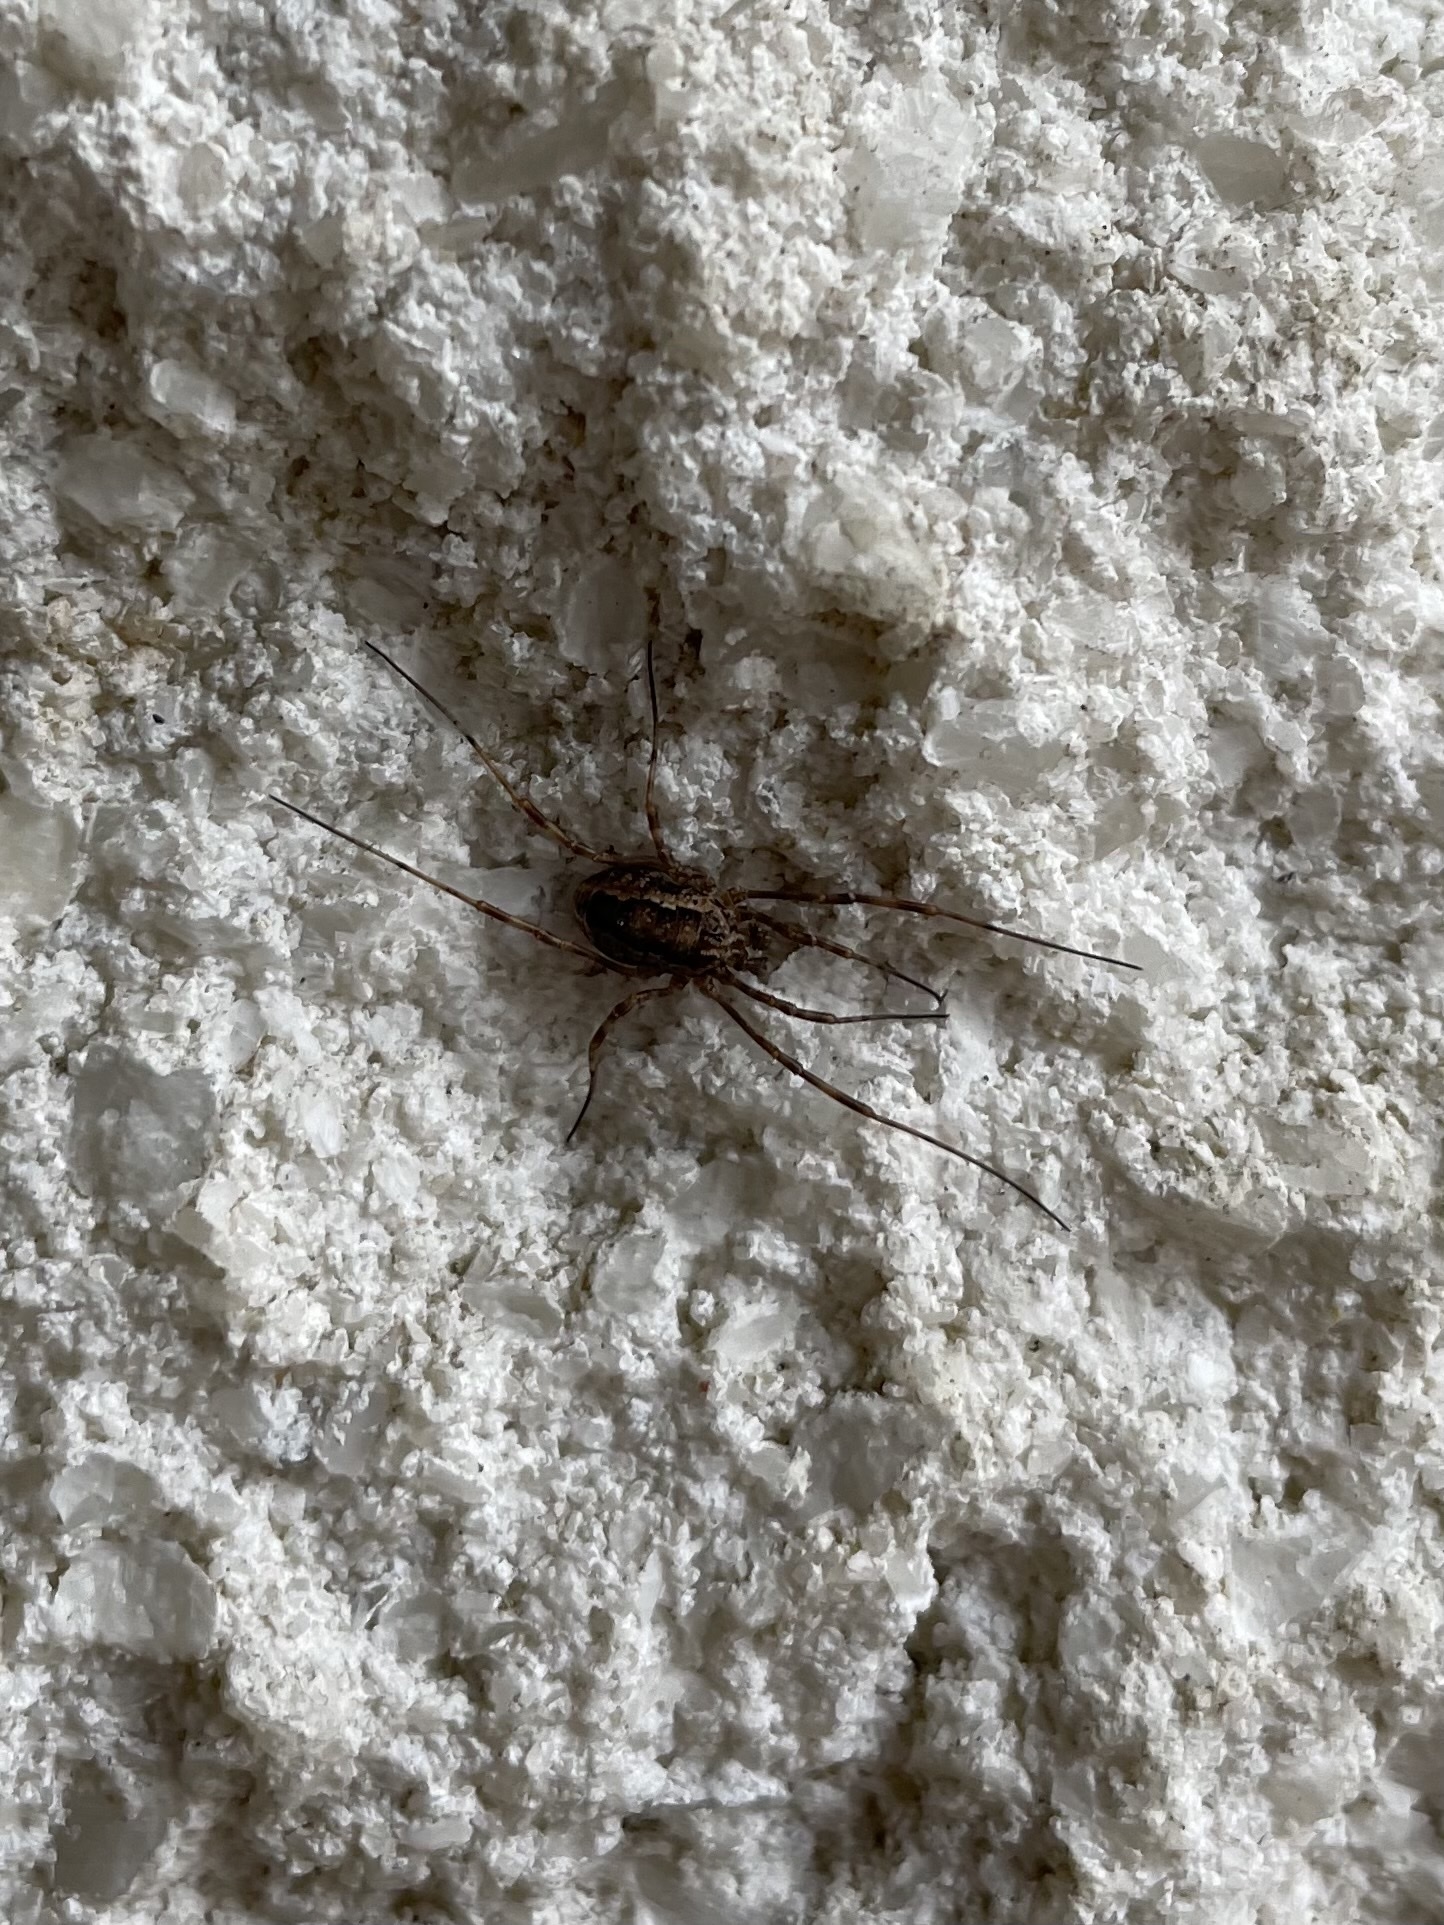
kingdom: Animalia
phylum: Arthropoda
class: Arachnida
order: Opiliones
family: Phalangiidae
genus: Rilaena
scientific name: Rilaena triangularis
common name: Spring harvestman
